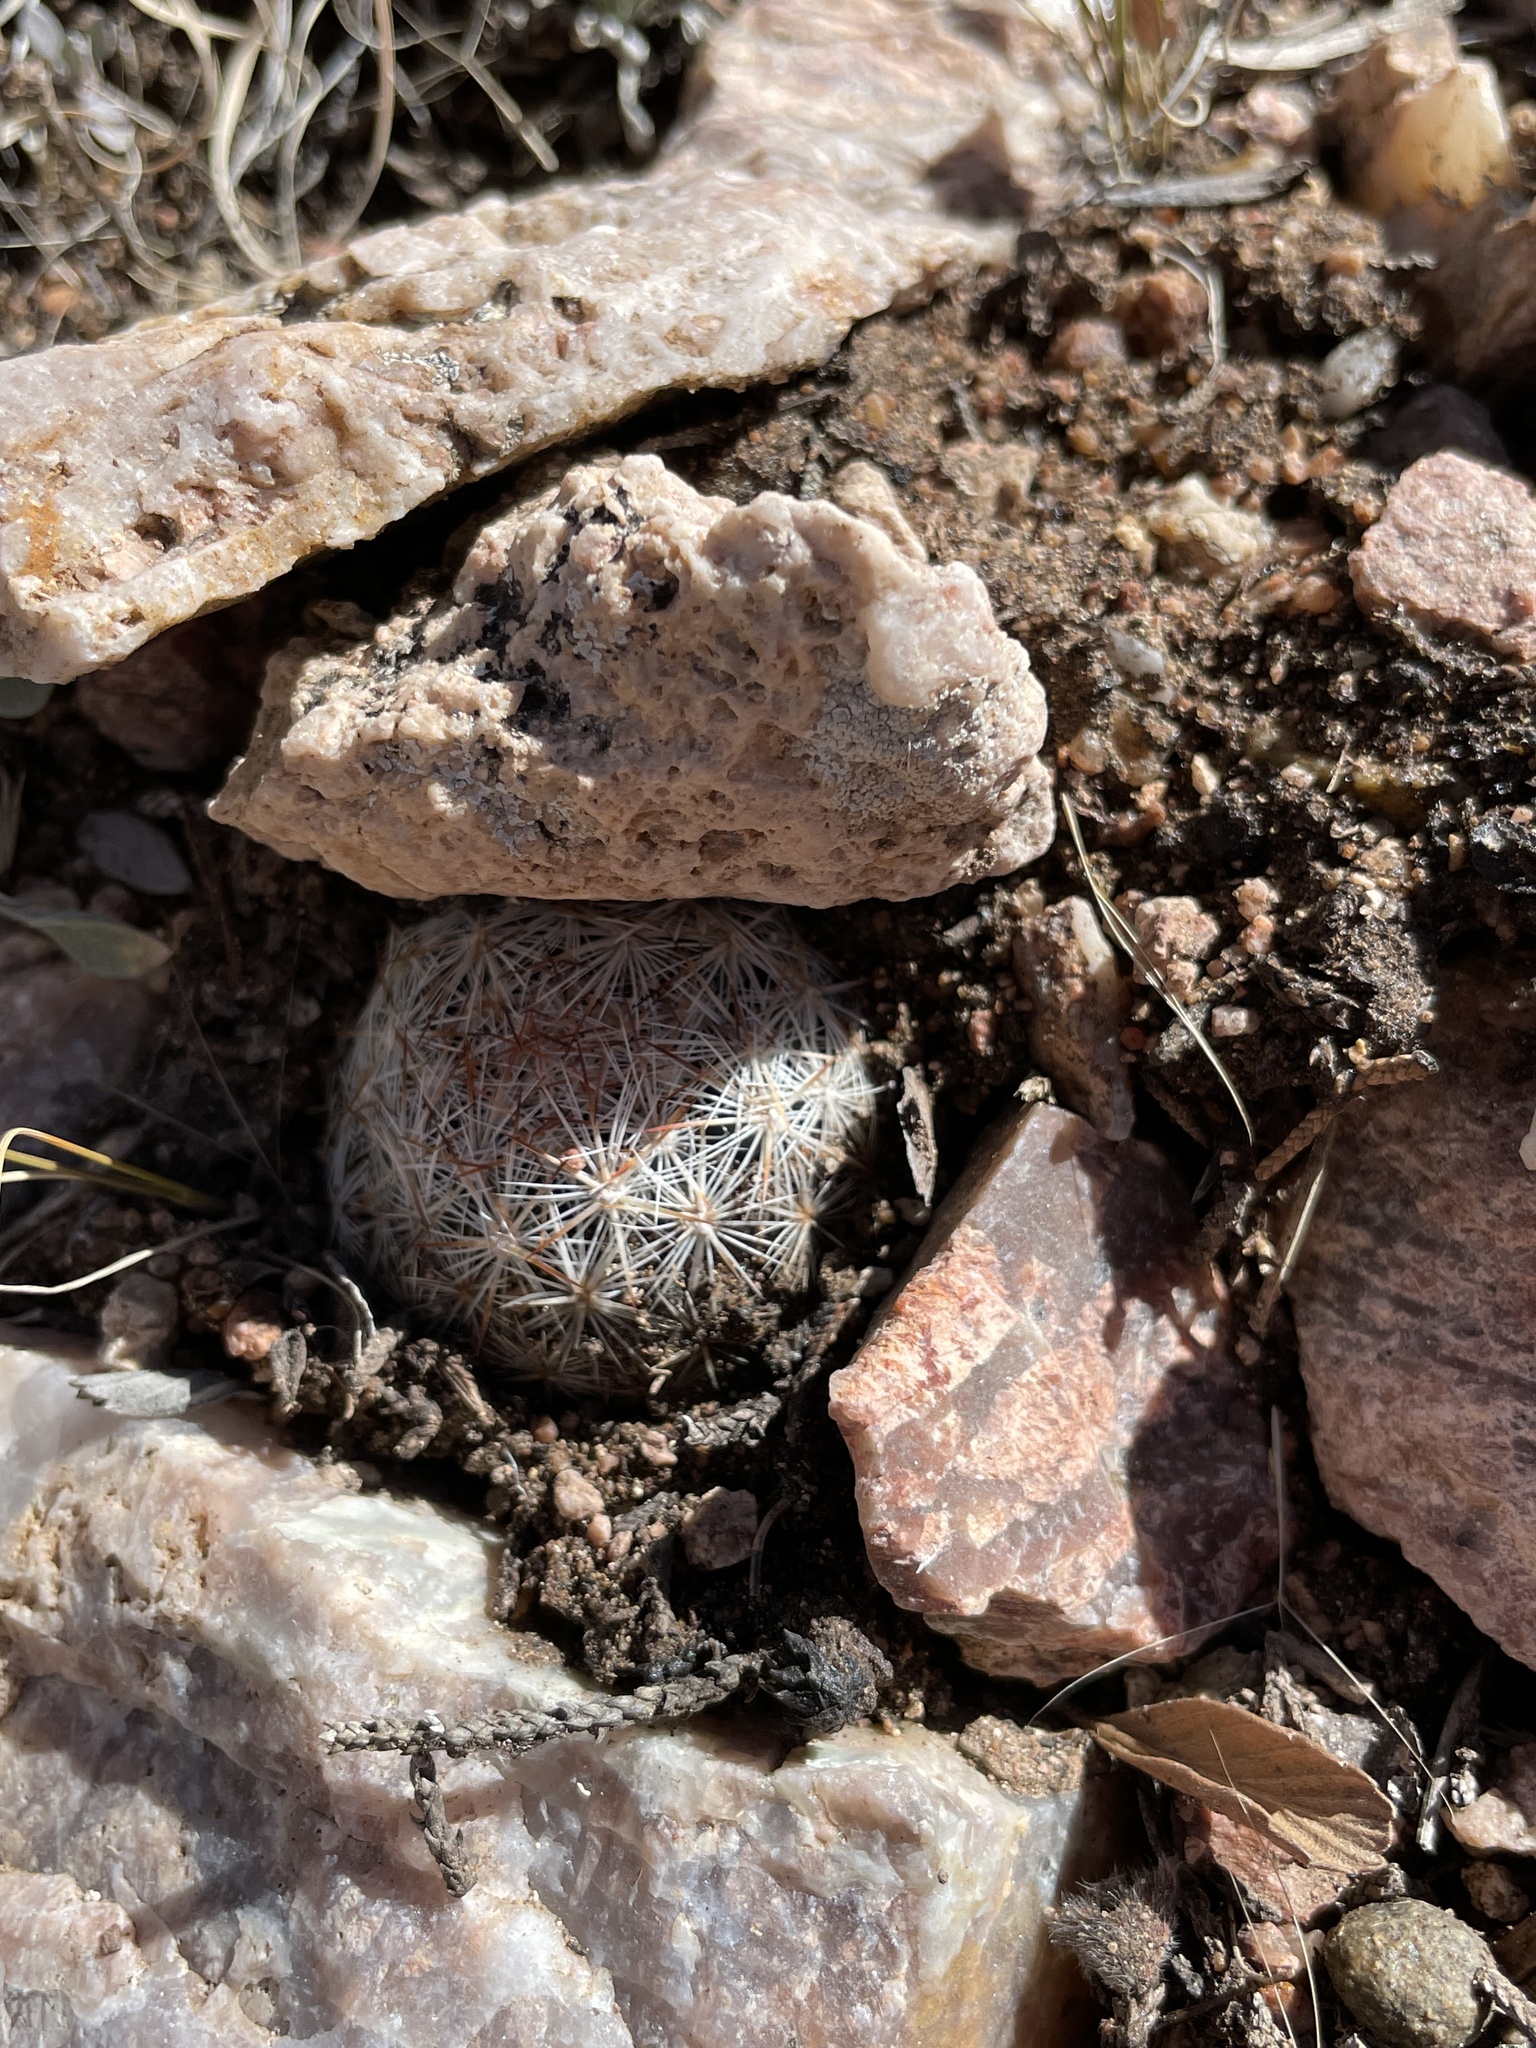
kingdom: Plantae
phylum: Tracheophyta
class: Magnoliopsida
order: Caryophyllales
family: Cactaceae
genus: Pelecyphora
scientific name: Pelecyphora vivipara
